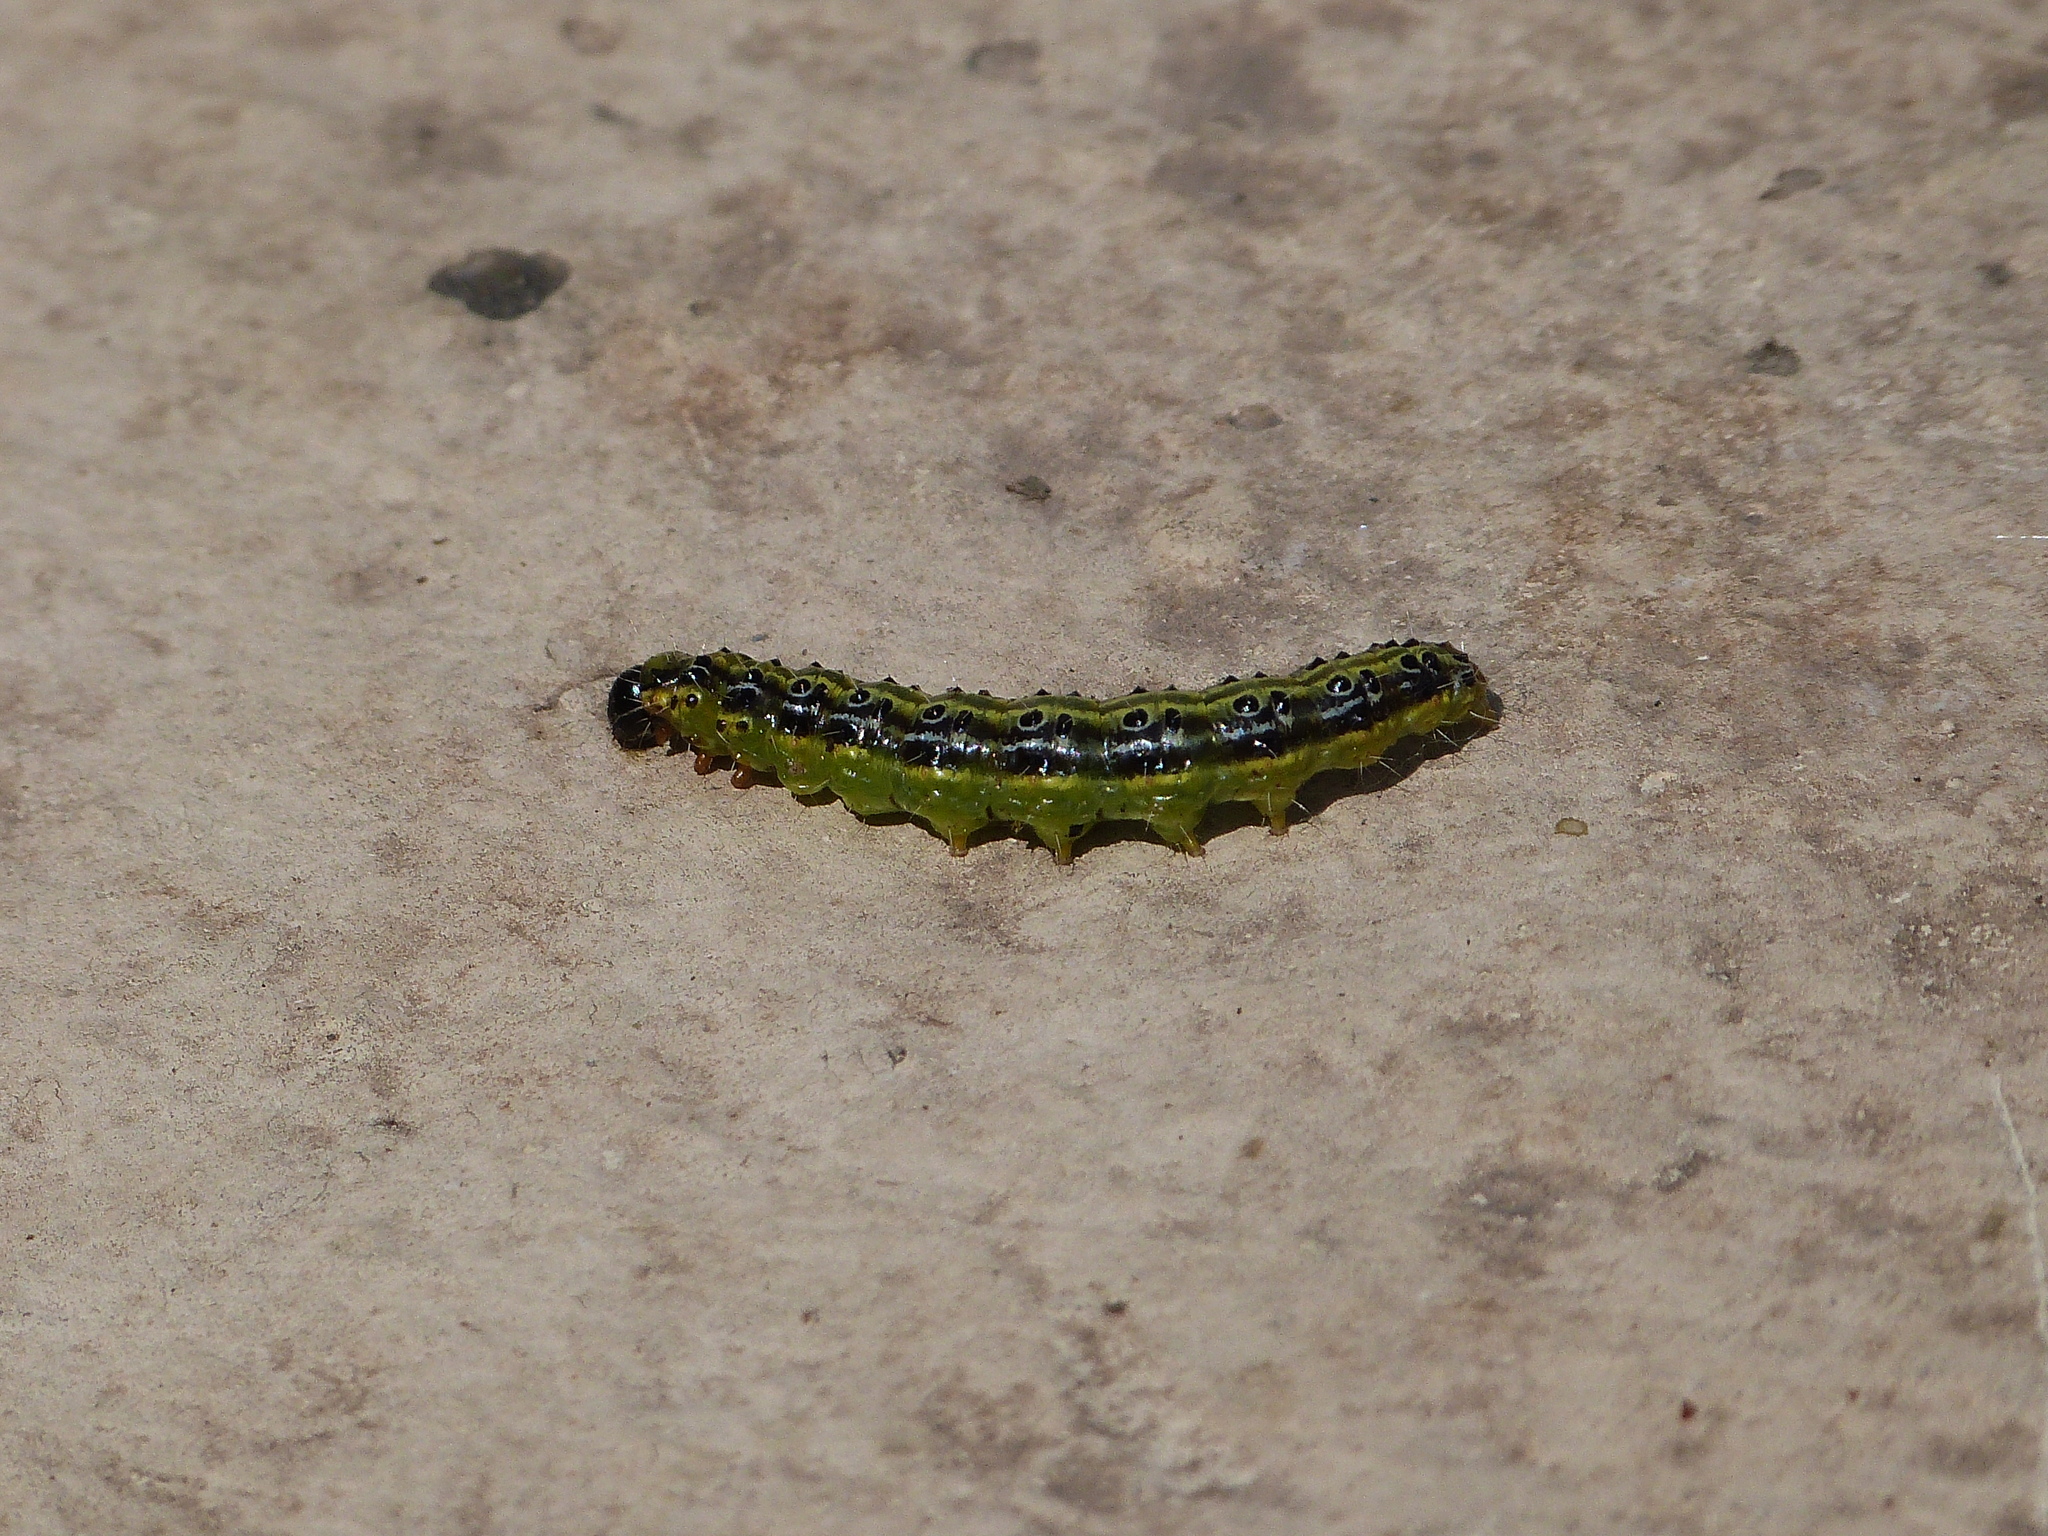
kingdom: Animalia
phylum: Arthropoda
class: Insecta
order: Lepidoptera
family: Crambidae
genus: Cydalima
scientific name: Cydalima perspectalis
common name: Box tree moth
